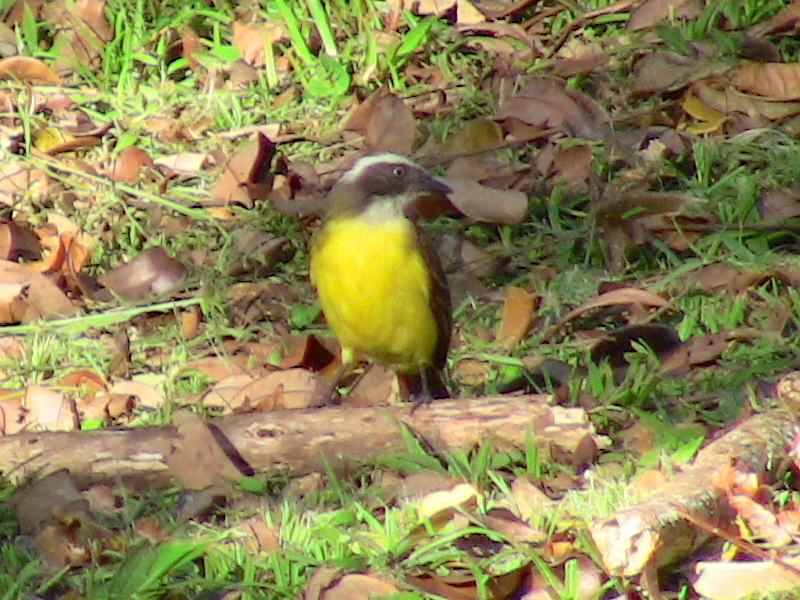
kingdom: Animalia
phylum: Chordata
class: Aves
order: Passeriformes
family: Tyrannidae
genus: Myiozetetes
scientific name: Myiozetetes similis
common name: Social flycatcher
